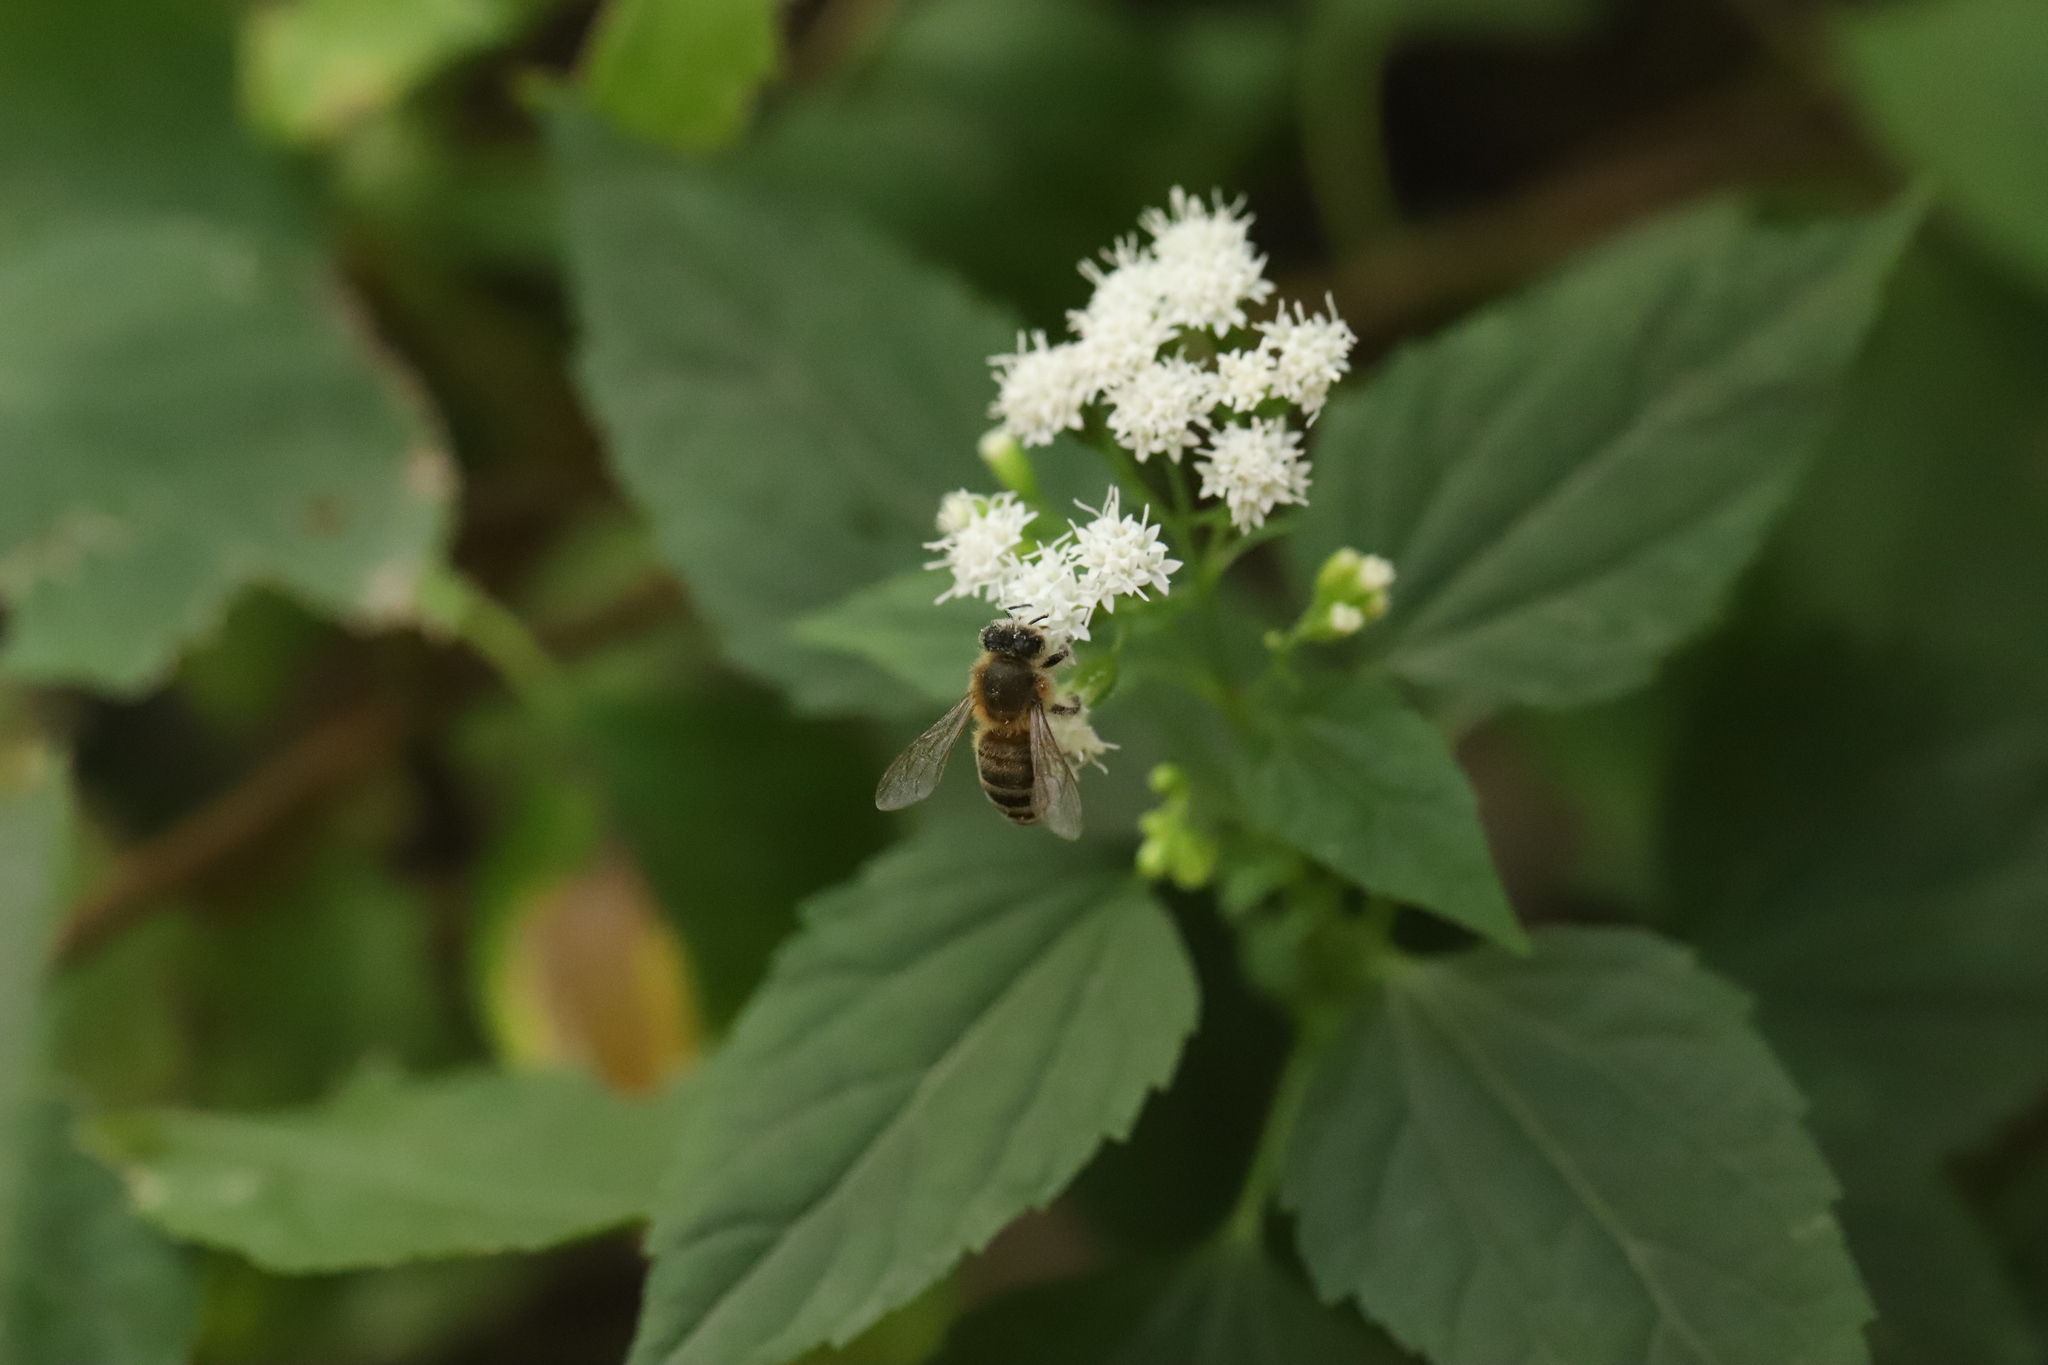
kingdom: Animalia
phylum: Arthropoda
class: Insecta
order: Hymenoptera
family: Apidae
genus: Apis
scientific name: Apis mellifera
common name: Honey bee
